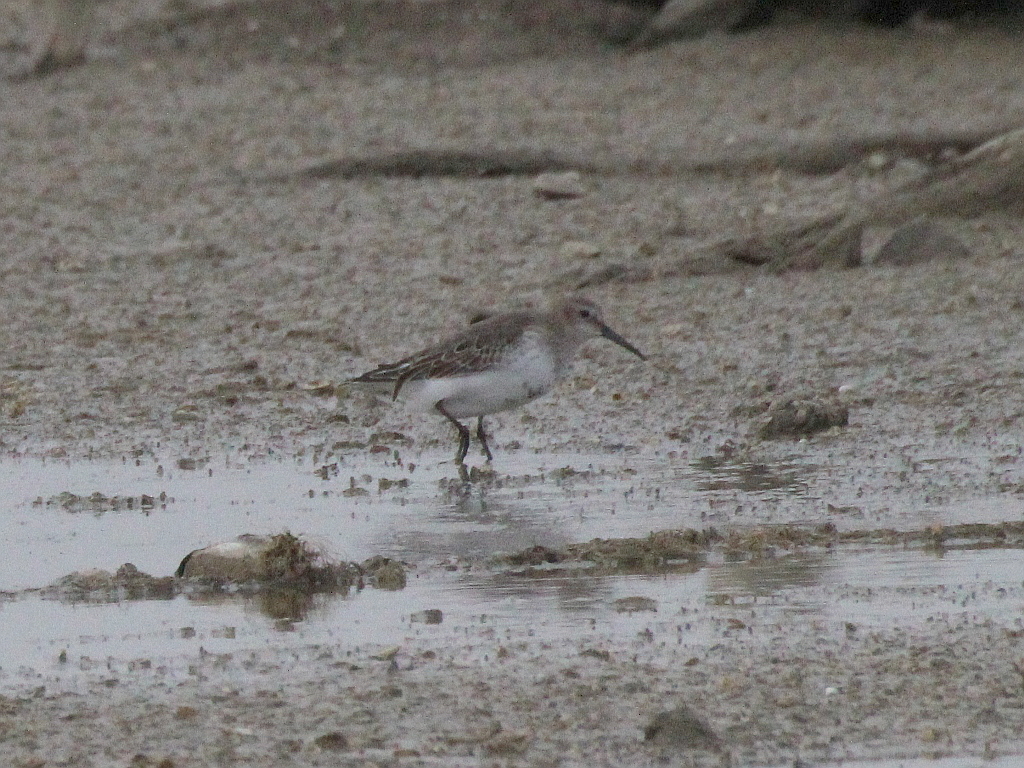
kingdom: Animalia
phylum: Chordata
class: Aves
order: Charadriiformes
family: Scolopacidae
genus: Calidris
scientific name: Calidris alpina
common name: Dunlin
